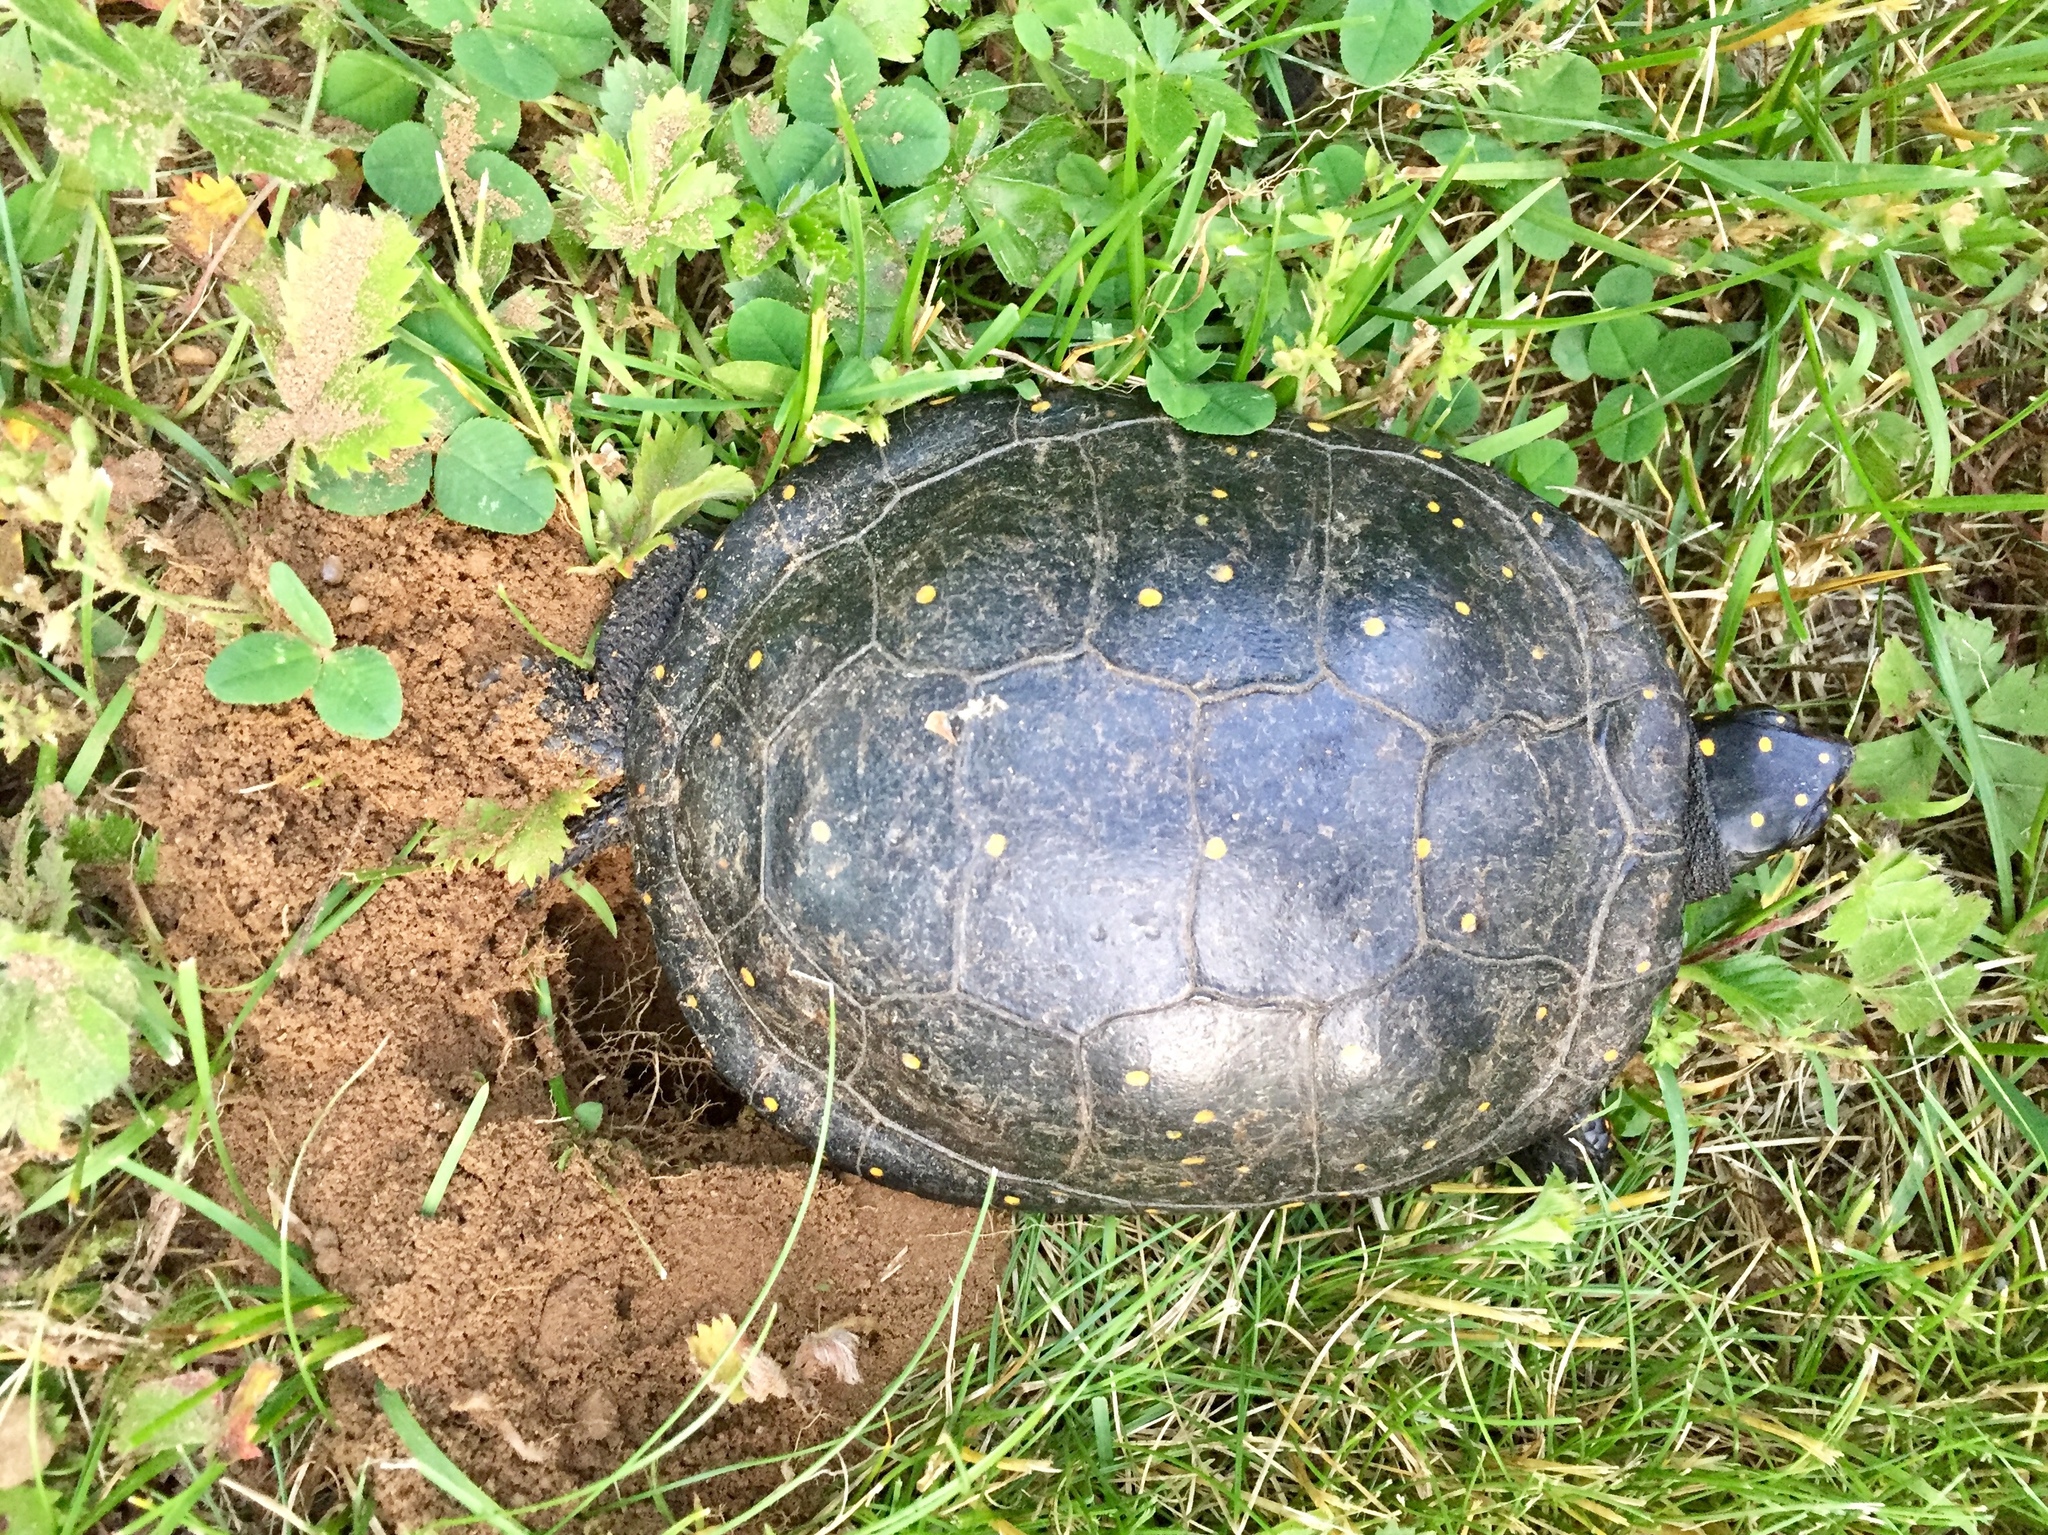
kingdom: Animalia
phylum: Chordata
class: Testudines
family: Emydidae
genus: Clemmys
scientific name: Clemmys guttata
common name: Spotted turtle
